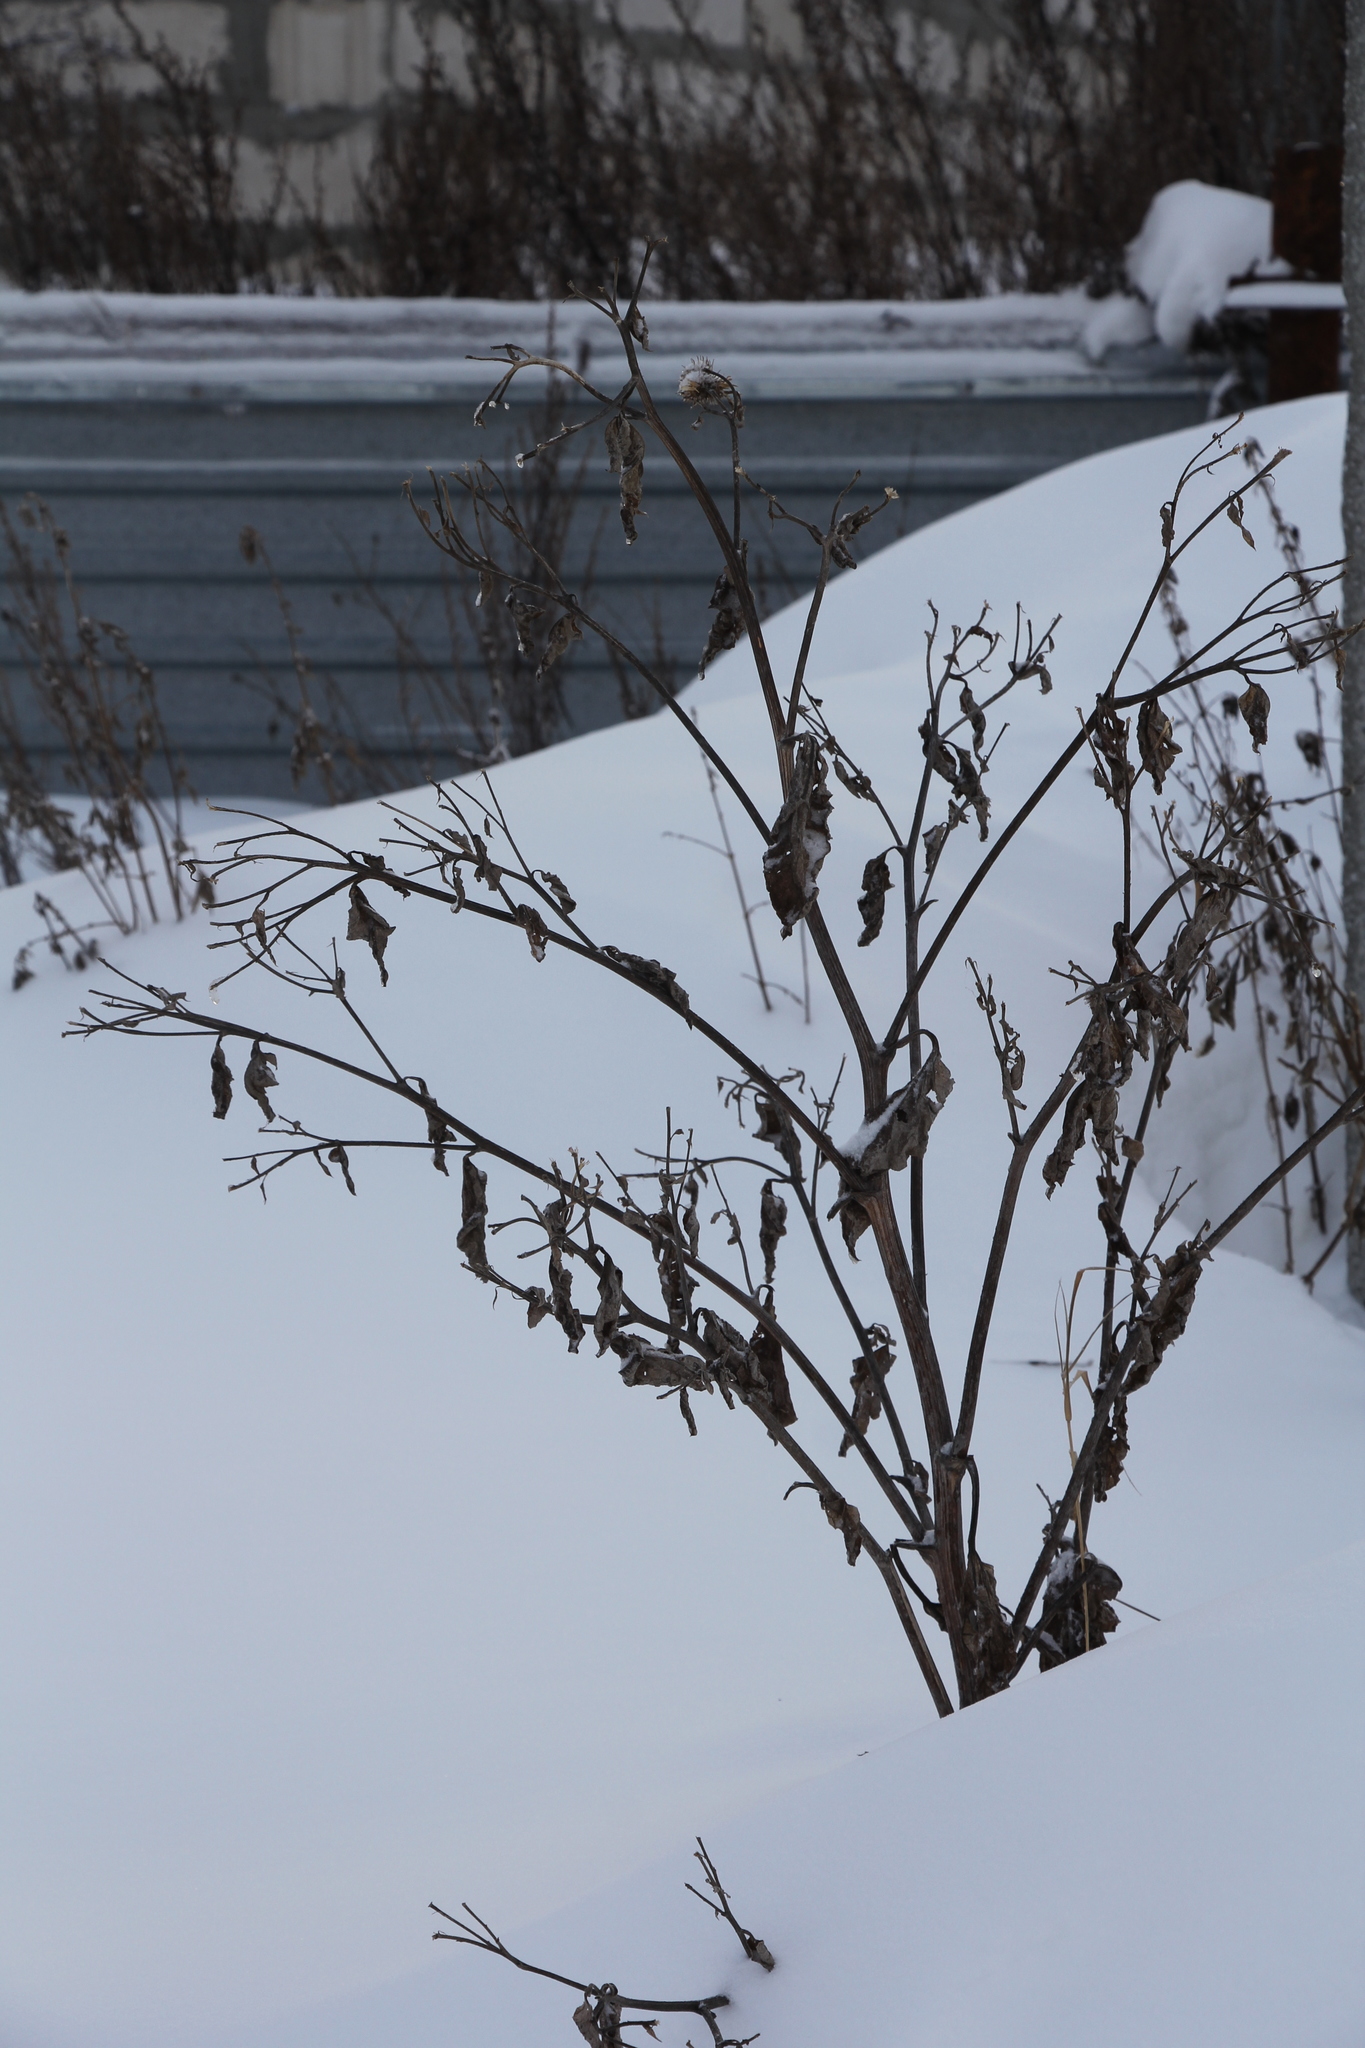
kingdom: Plantae
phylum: Tracheophyta
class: Magnoliopsida
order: Asterales
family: Asteraceae
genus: Arctium
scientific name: Arctium tomentosum
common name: Woolly burdock
